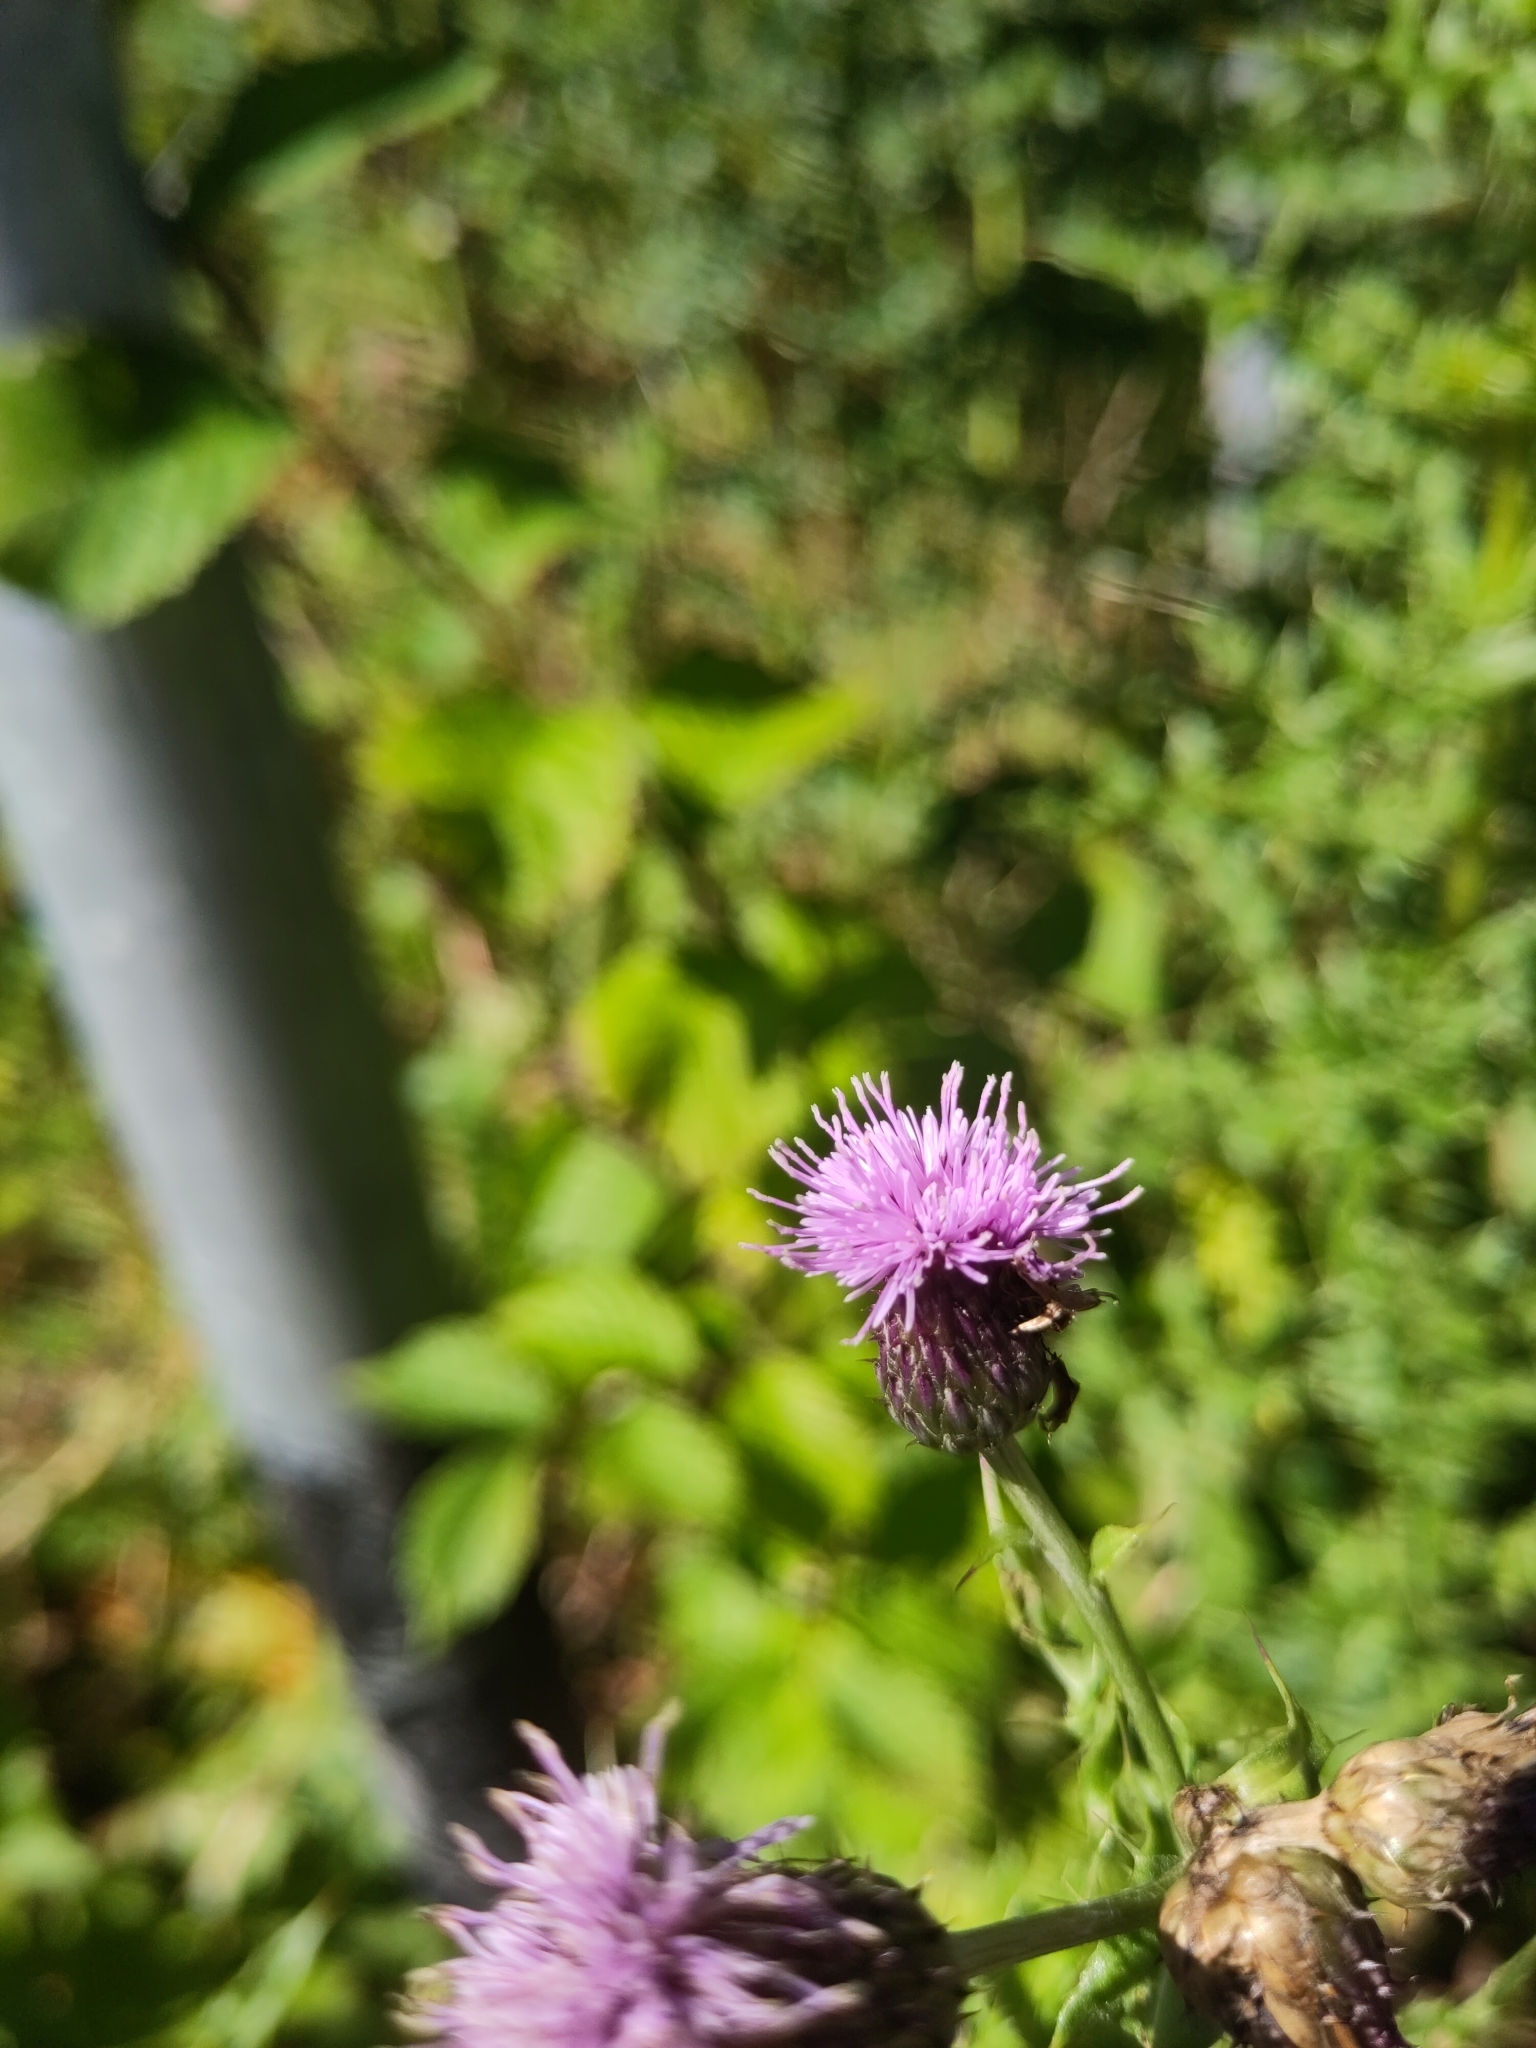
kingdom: Plantae
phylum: Tracheophyta
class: Magnoliopsida
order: Asterales
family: Asteraceae
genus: Cirsium
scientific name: Cirsium arvense
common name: Creeping thistle
